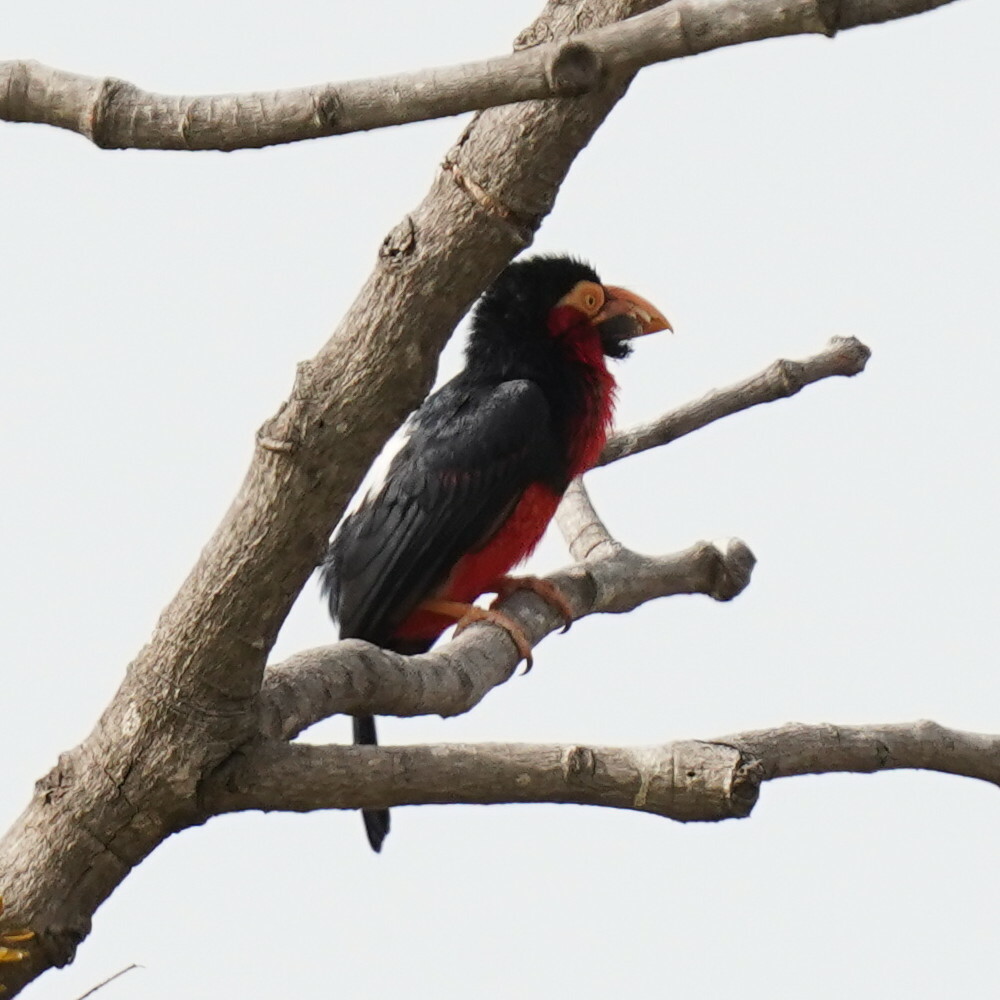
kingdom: Animalia
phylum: Chordata
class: Aves
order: Piciformes
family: Lybiidae
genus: Lybius
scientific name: Lybius dubius
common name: Bearded barbet
